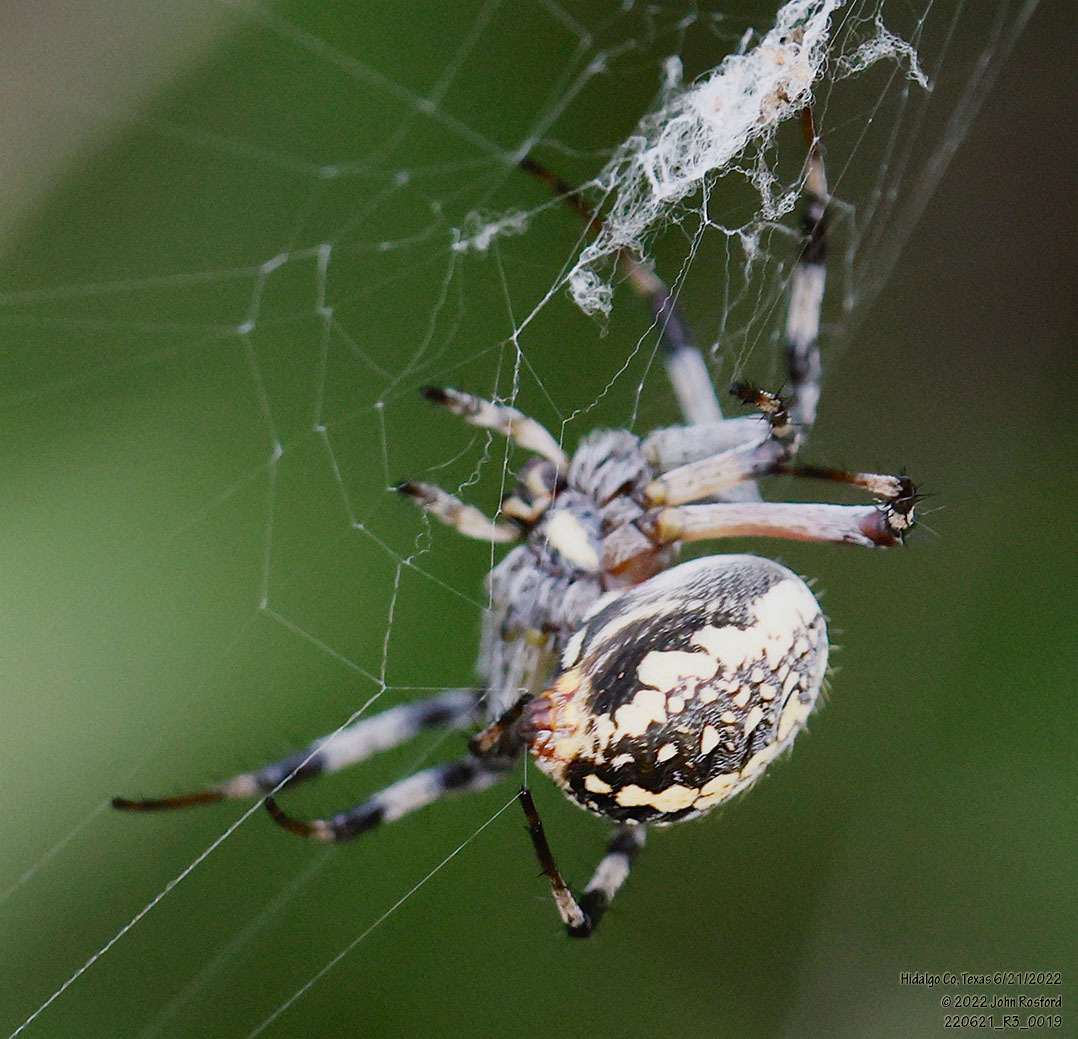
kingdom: Animalia
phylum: Arthropoda
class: Arachnida
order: Araneae
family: Araneidae
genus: Neoscona
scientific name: Neoscona oaxacensis
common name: Orb weavers
